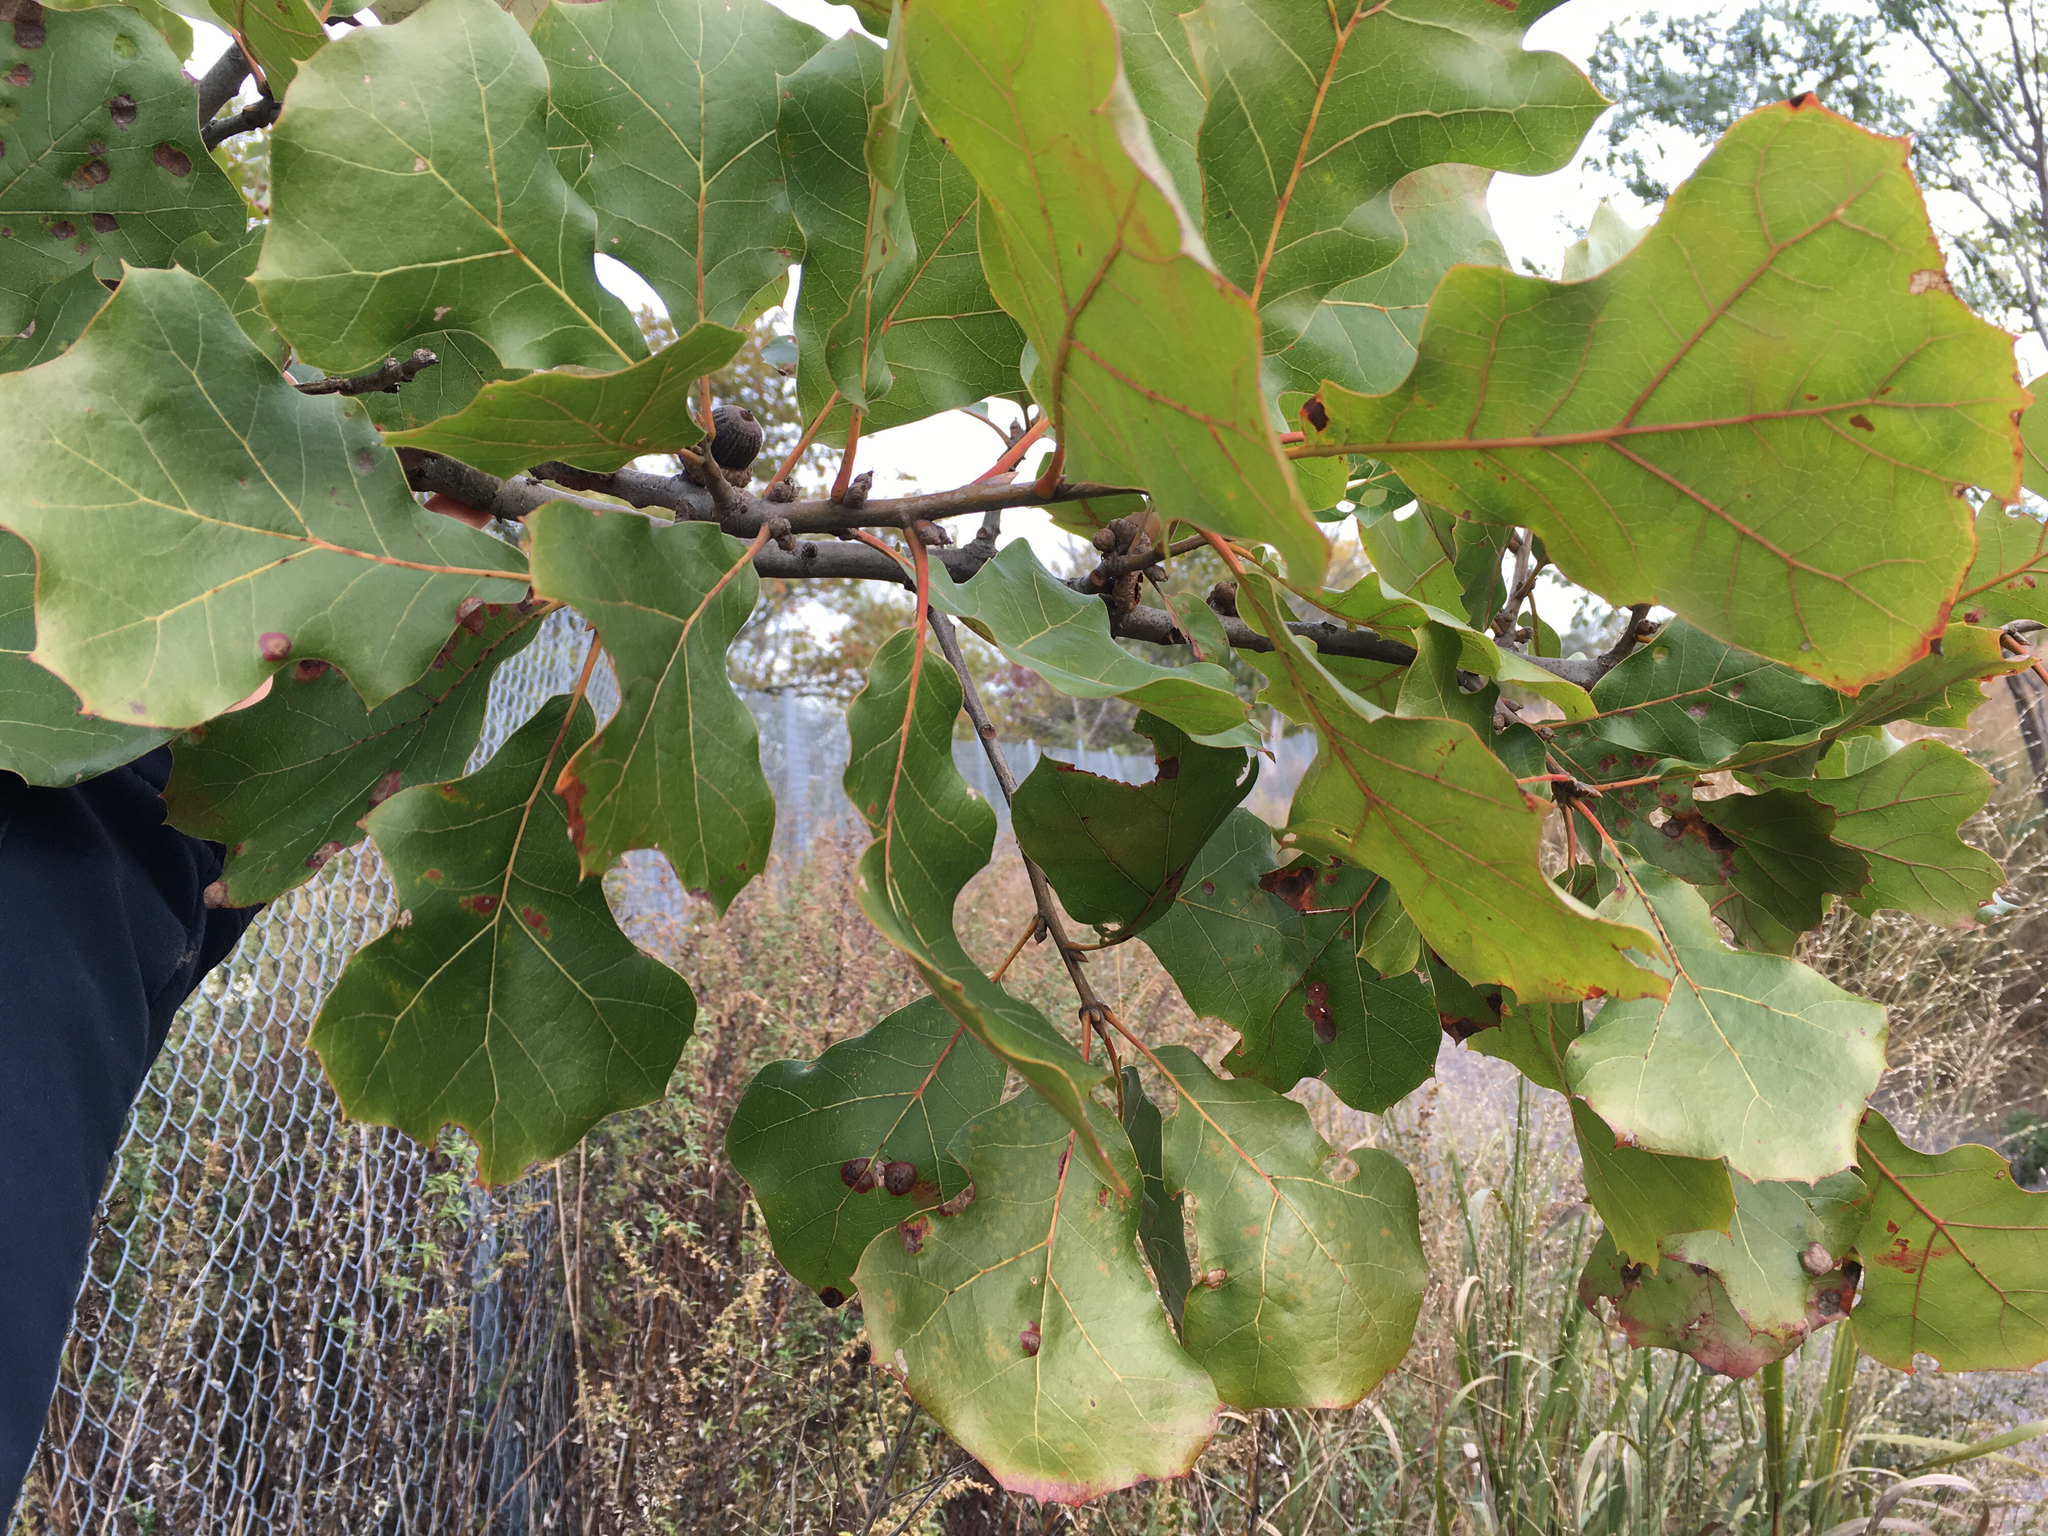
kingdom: Plantae
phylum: Tracheophyta
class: Magnoliopsida
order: Fagales
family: Fagaceae
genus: Quercus
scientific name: Quercus marilandica
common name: Blackjack oak
